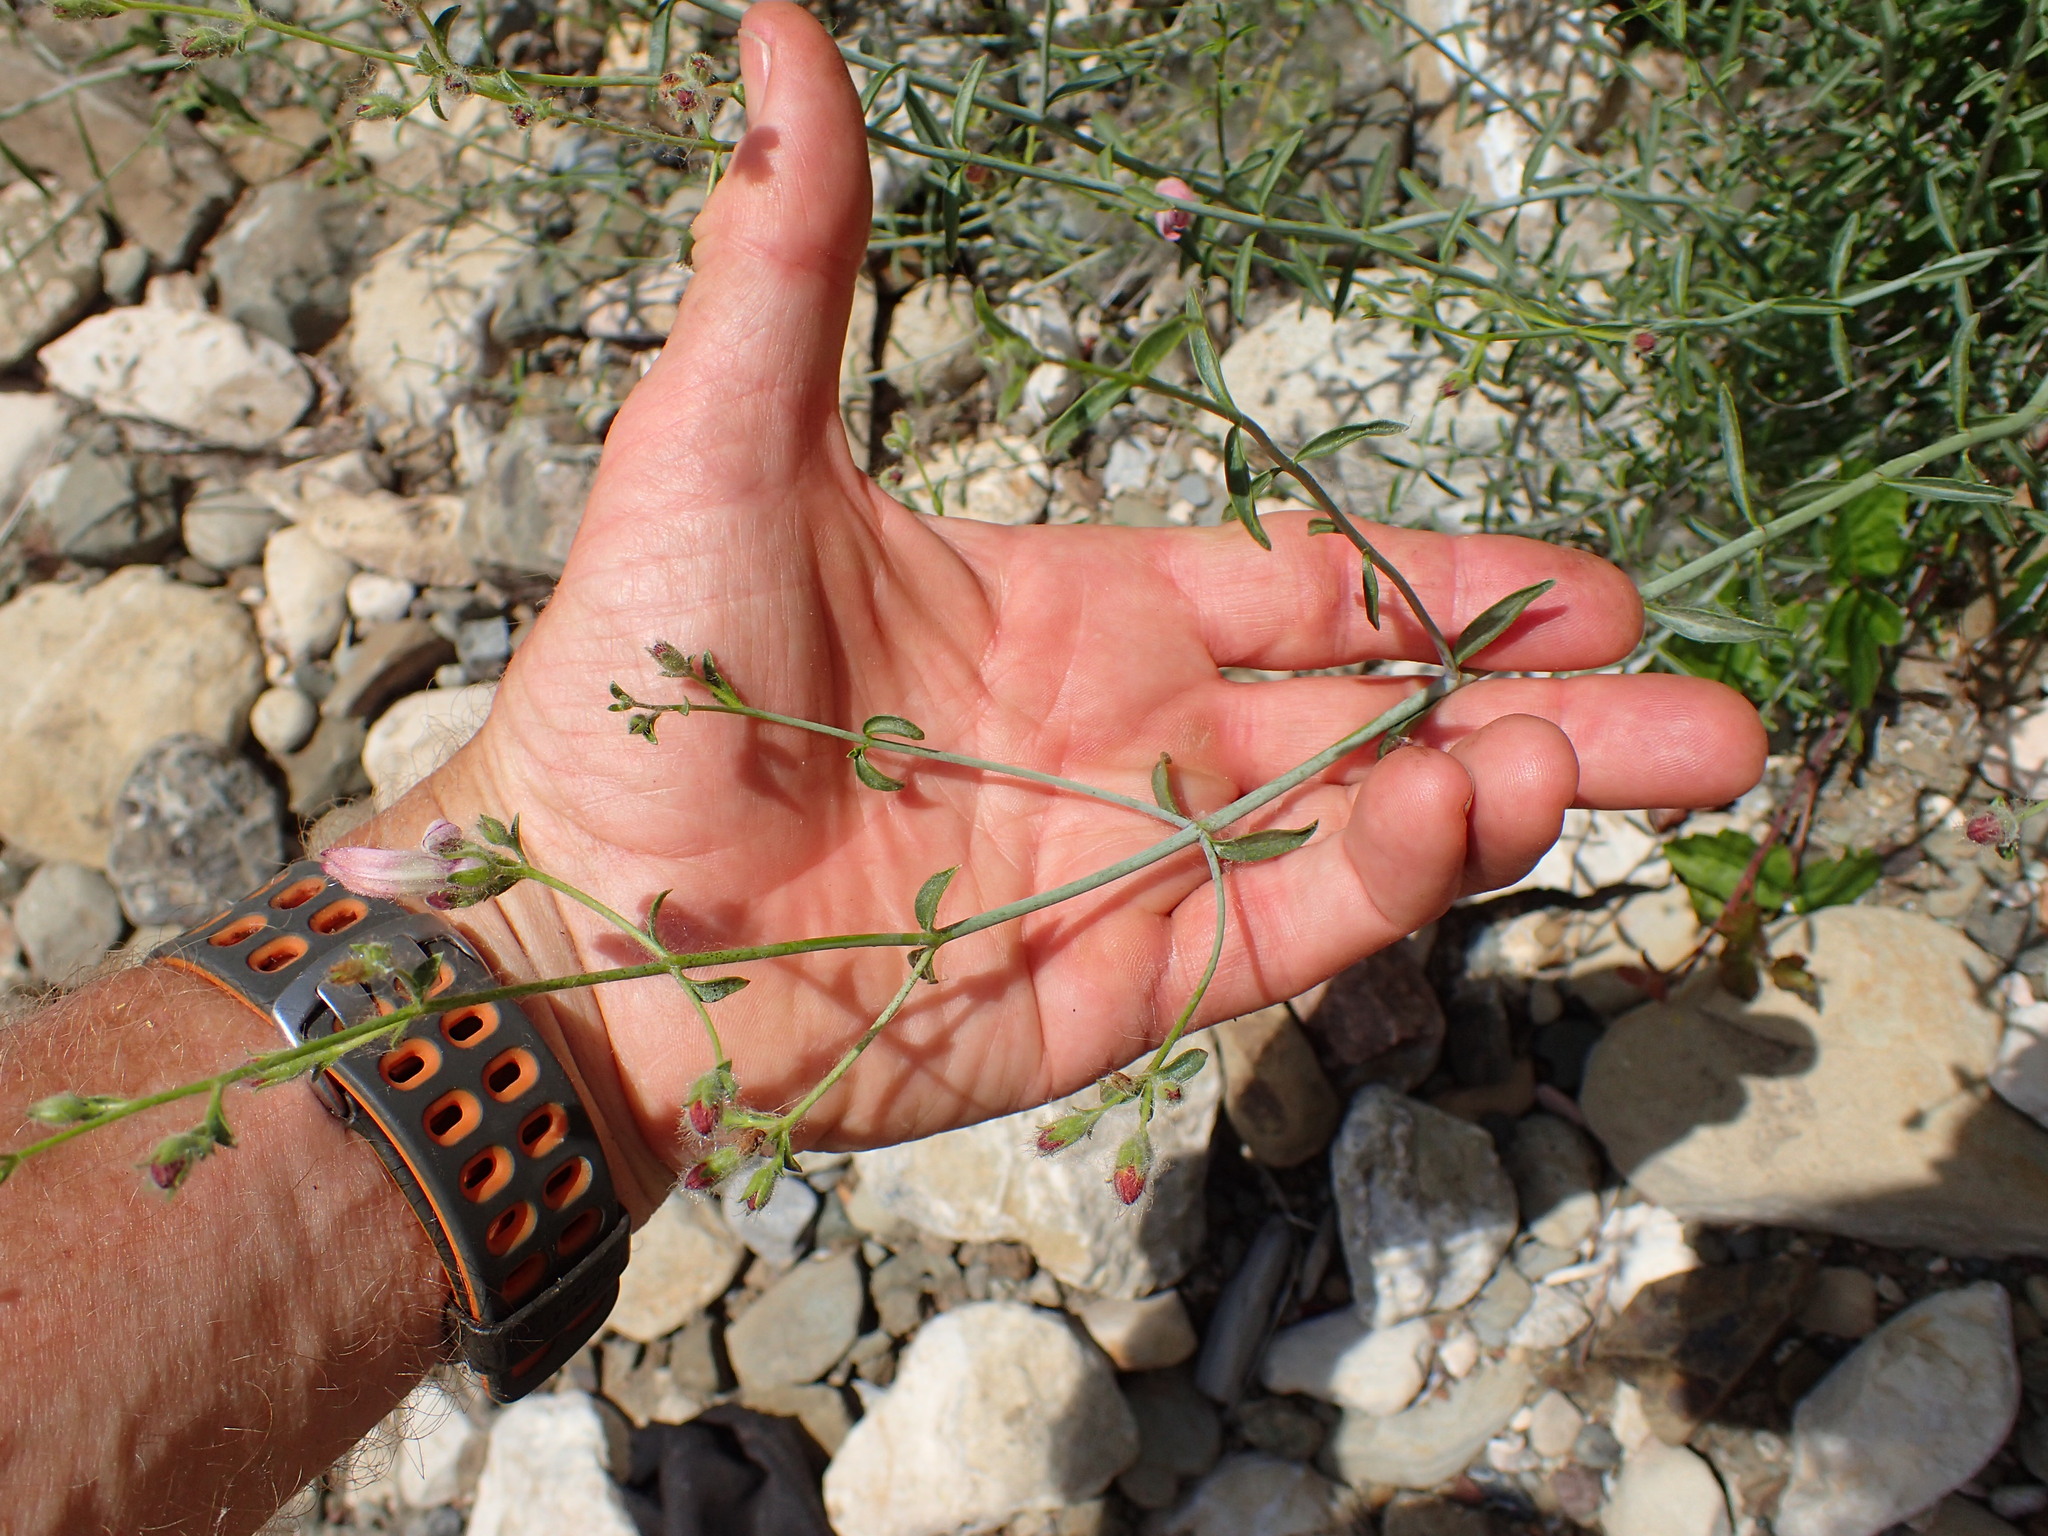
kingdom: Plantae
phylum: Tracheophyta
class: Magnoliopsida
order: Lamiales
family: Plantaginaceae
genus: Keckiella
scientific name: Keckiella breviflora
